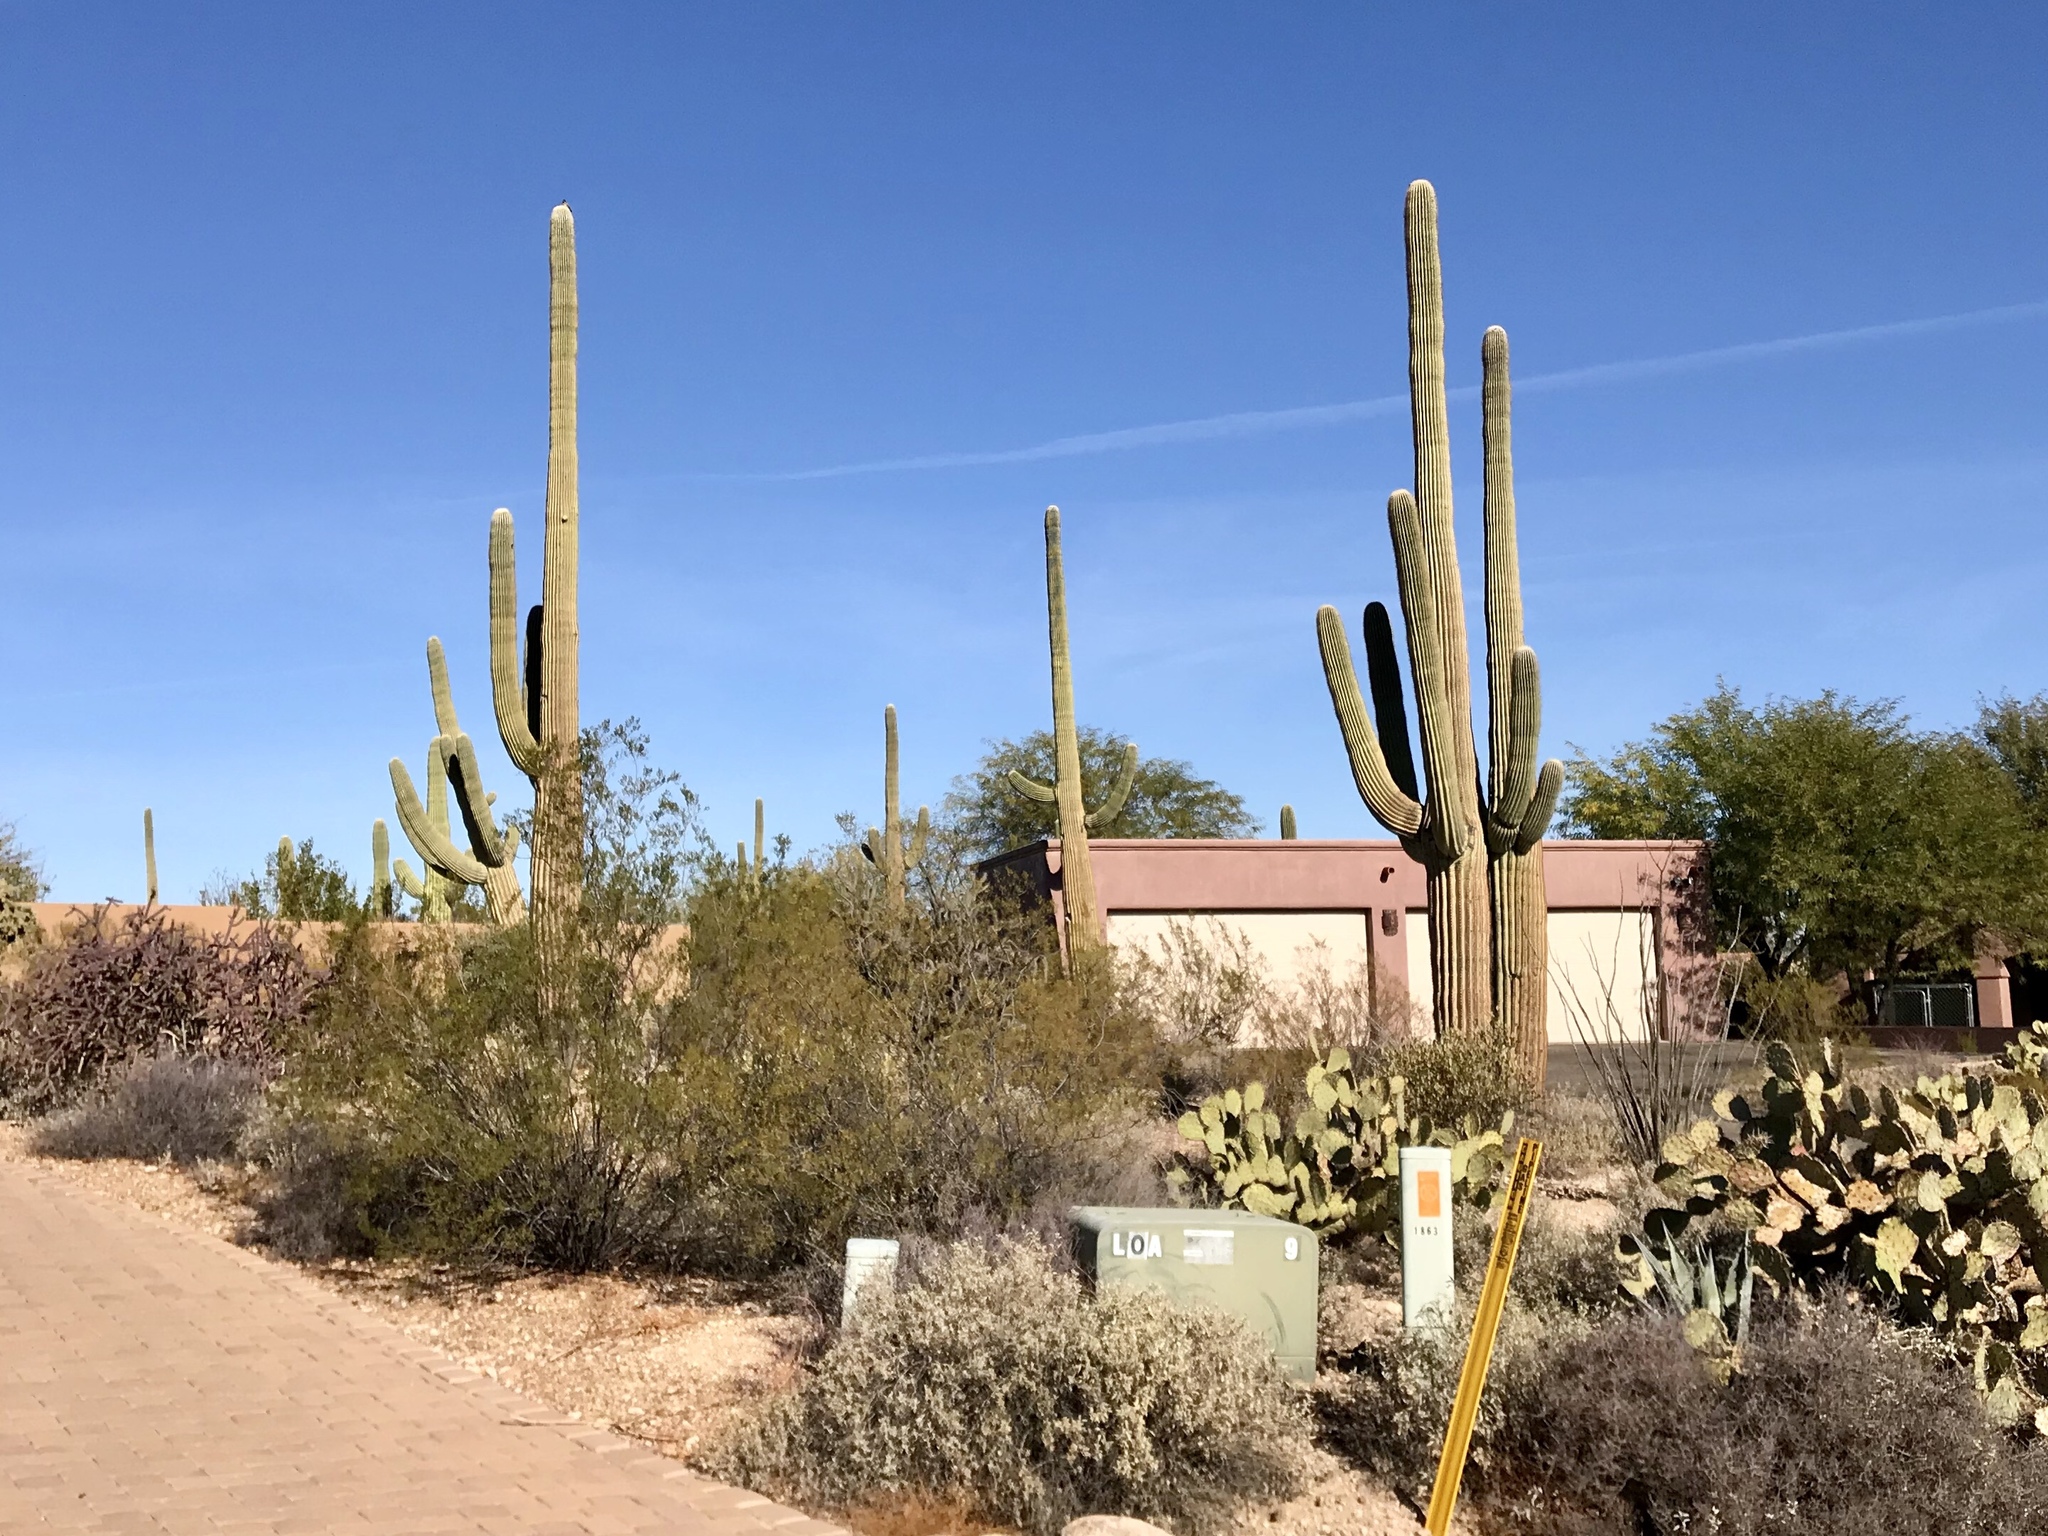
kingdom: Plantae
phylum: Tracheophyta
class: Magnoliopsida
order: Caryophyllales
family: Cactaceae
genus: Carnegiea
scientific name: Carnegiea gigantea
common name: Saguaro
